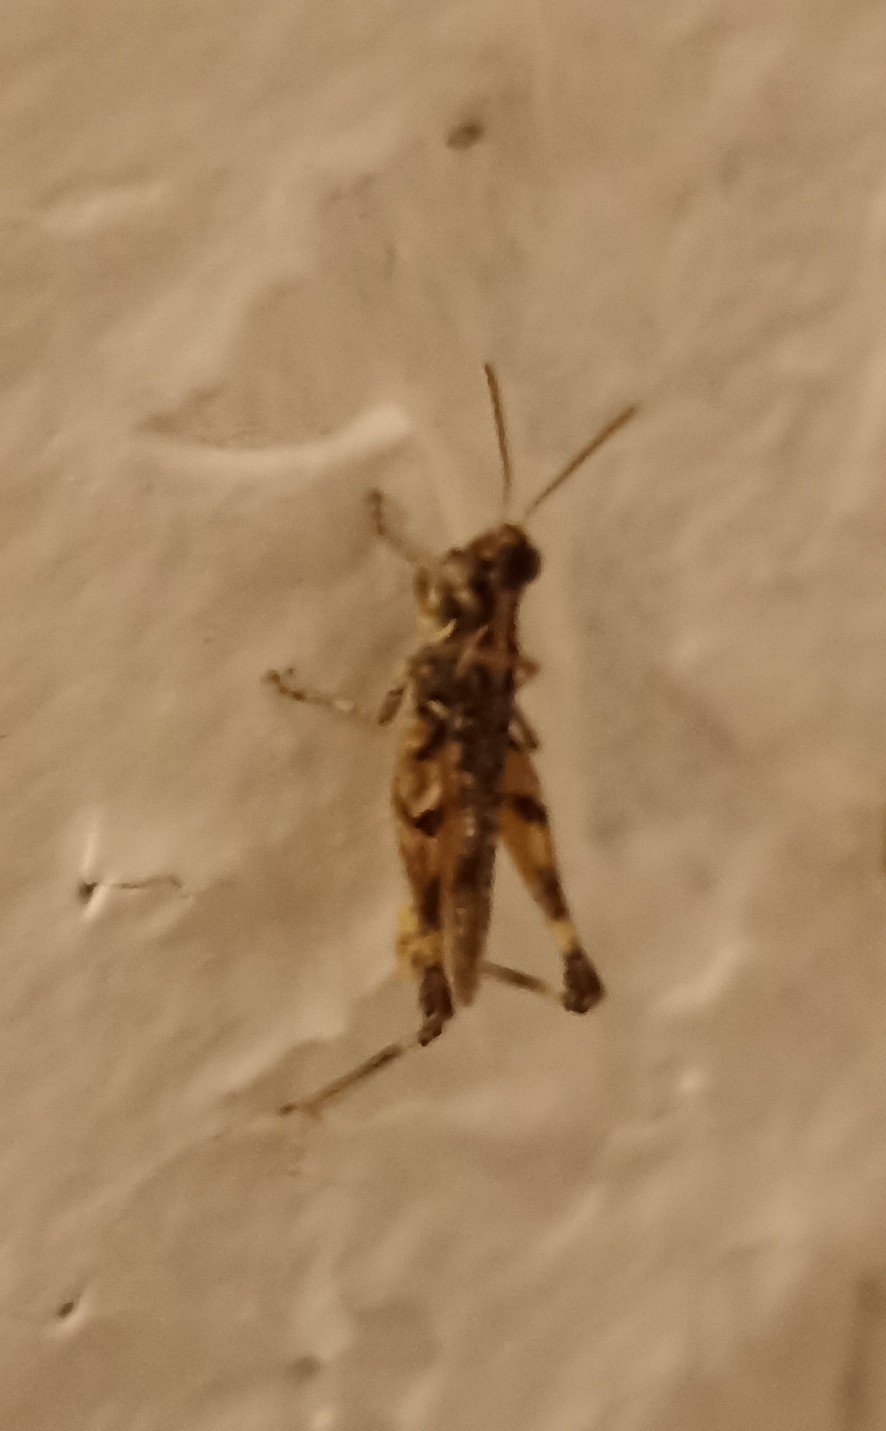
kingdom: Animalia
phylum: Arthropoda
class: Insecta
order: Orthoptera
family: Acrididae
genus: Dociostaurus
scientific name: Dociostaurus jagoi
